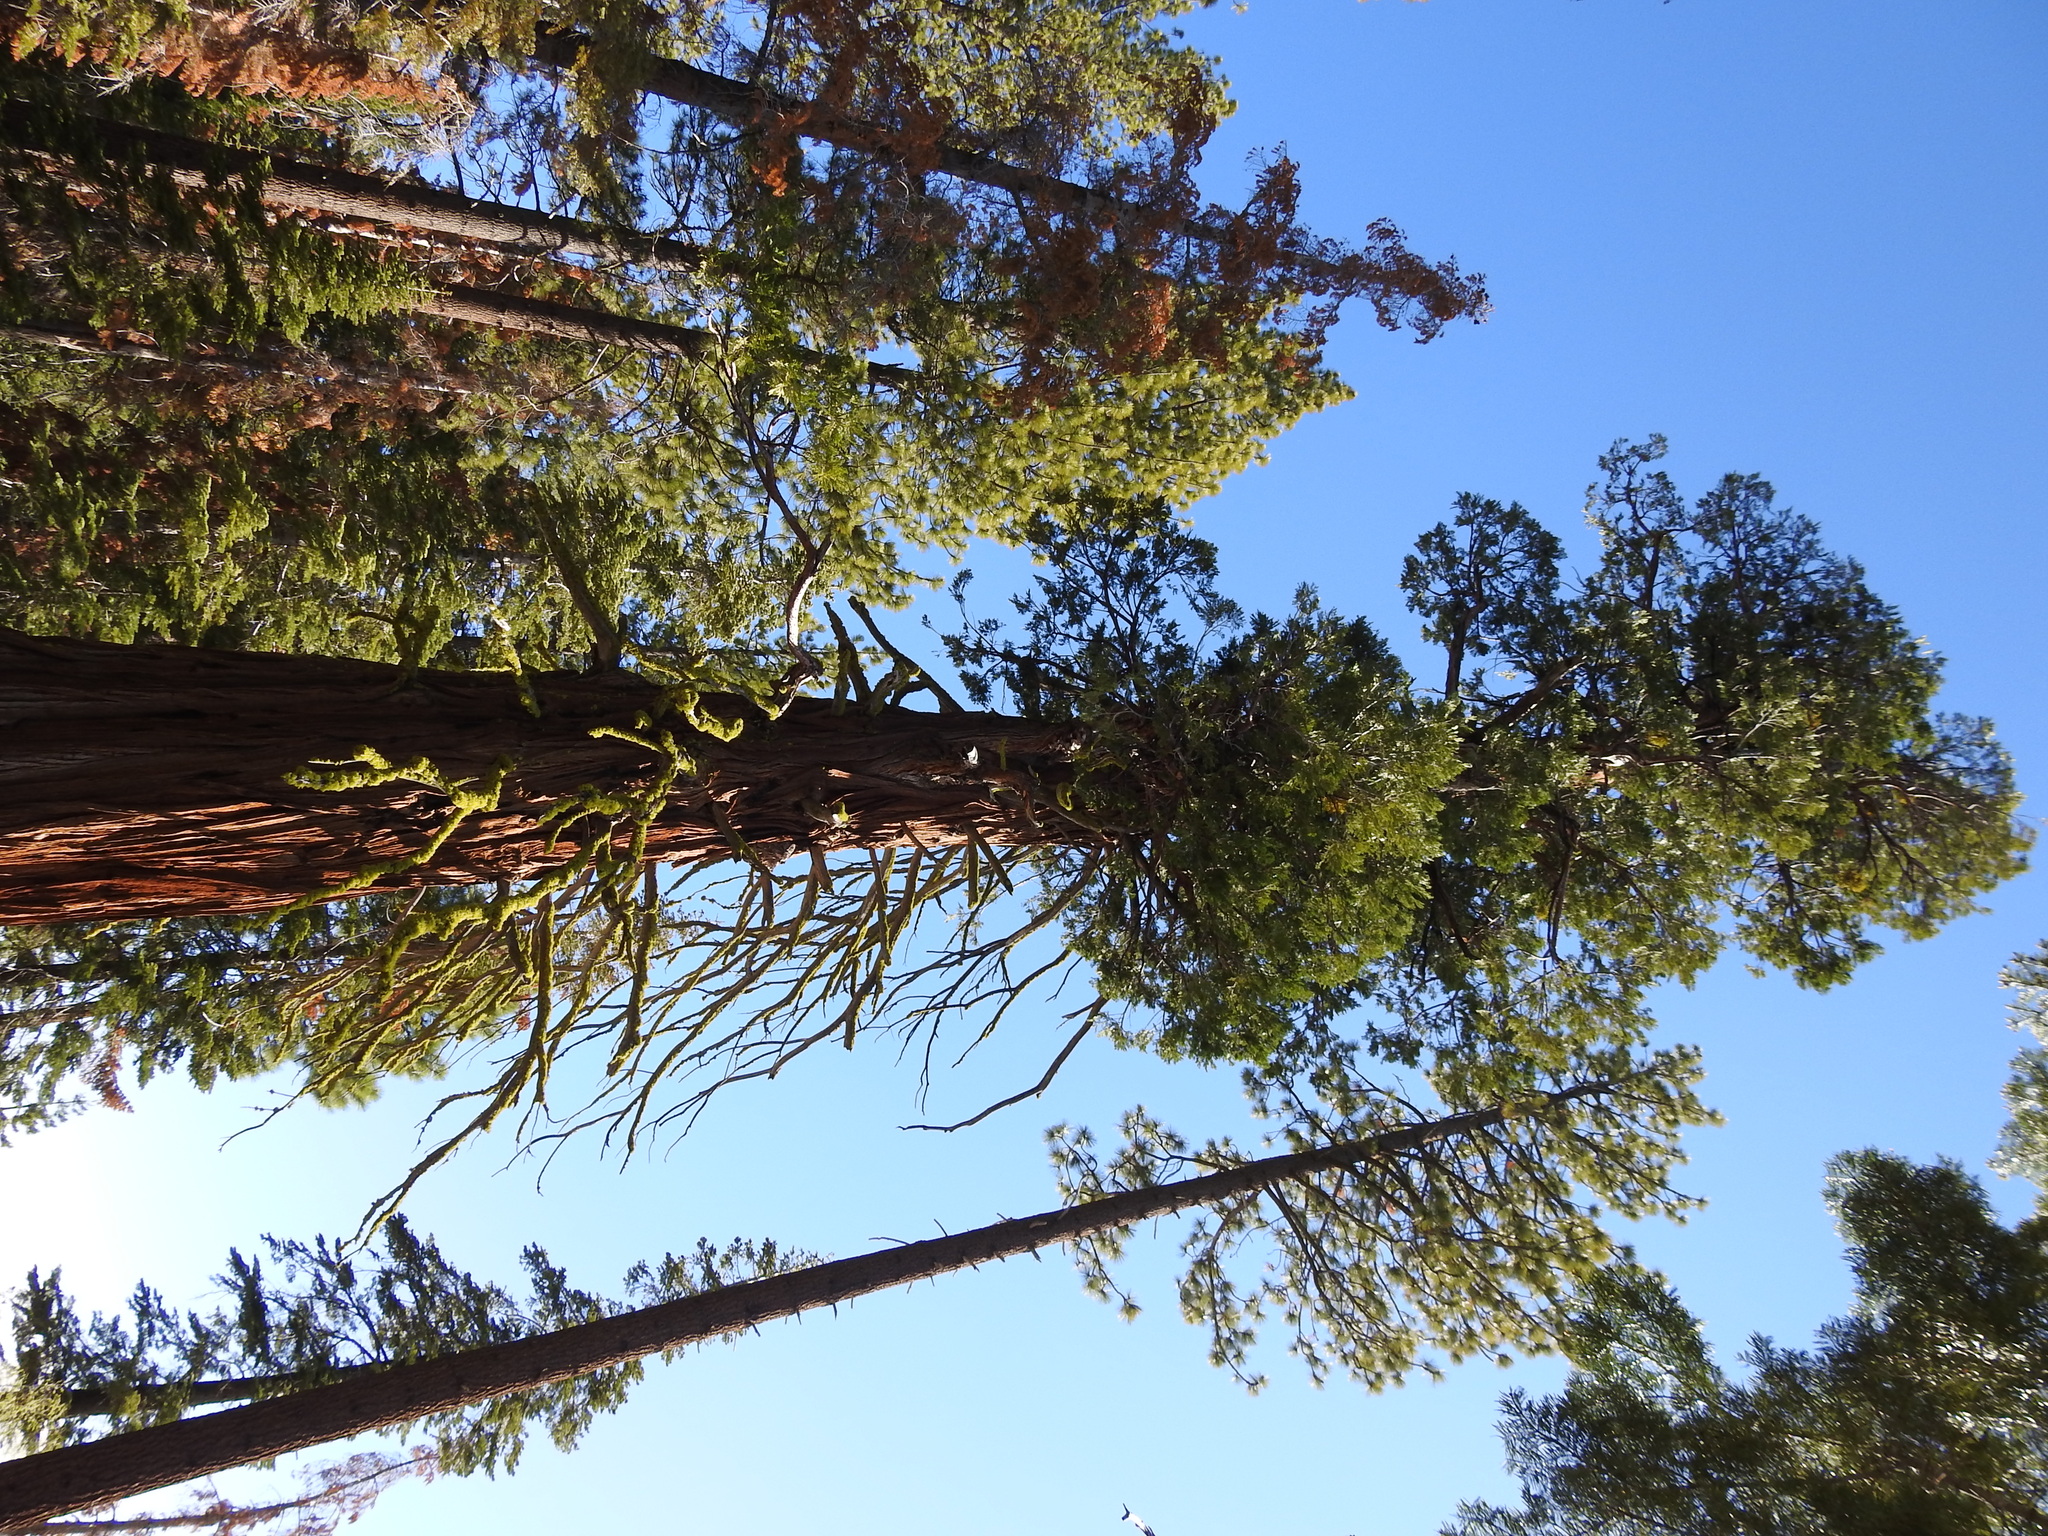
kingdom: Plantae
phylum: Tracheophyta
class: Pinopsida
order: Pinales
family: Cupressaceae
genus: Calocedrus
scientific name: Calocedrus decurrens
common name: Californian incense-cedar
